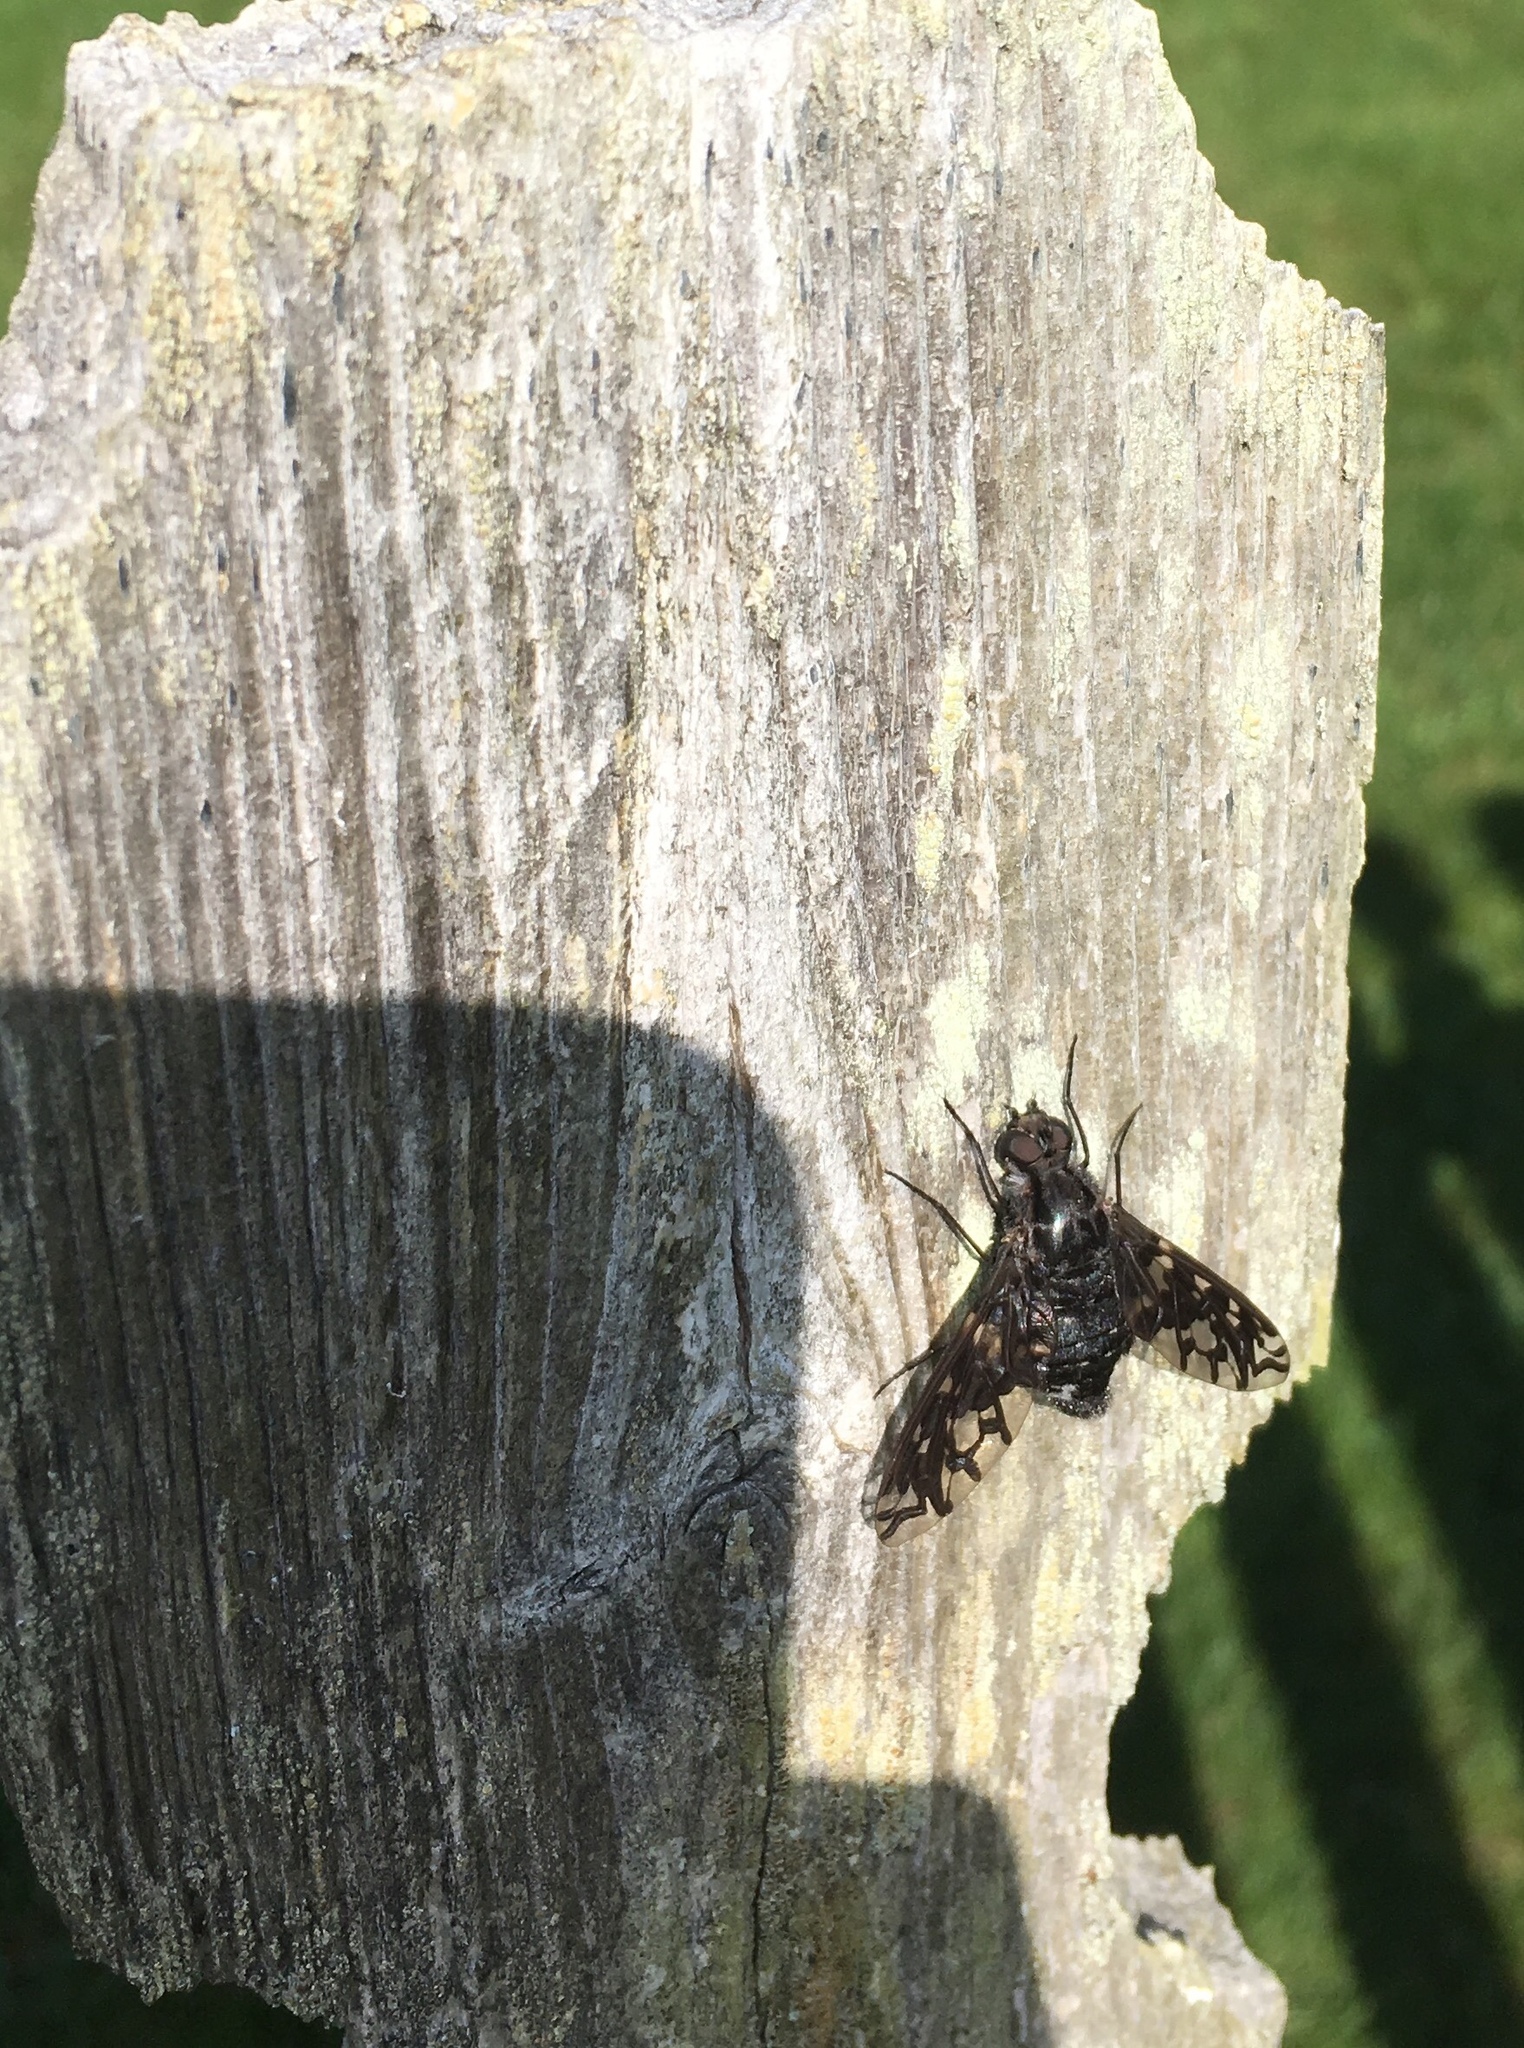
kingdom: Animalia
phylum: Arthropoda
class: Insecta
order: Diptera
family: Bombyliidae
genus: Xenox
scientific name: Xenox tigrinus
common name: Tiger bee fly
